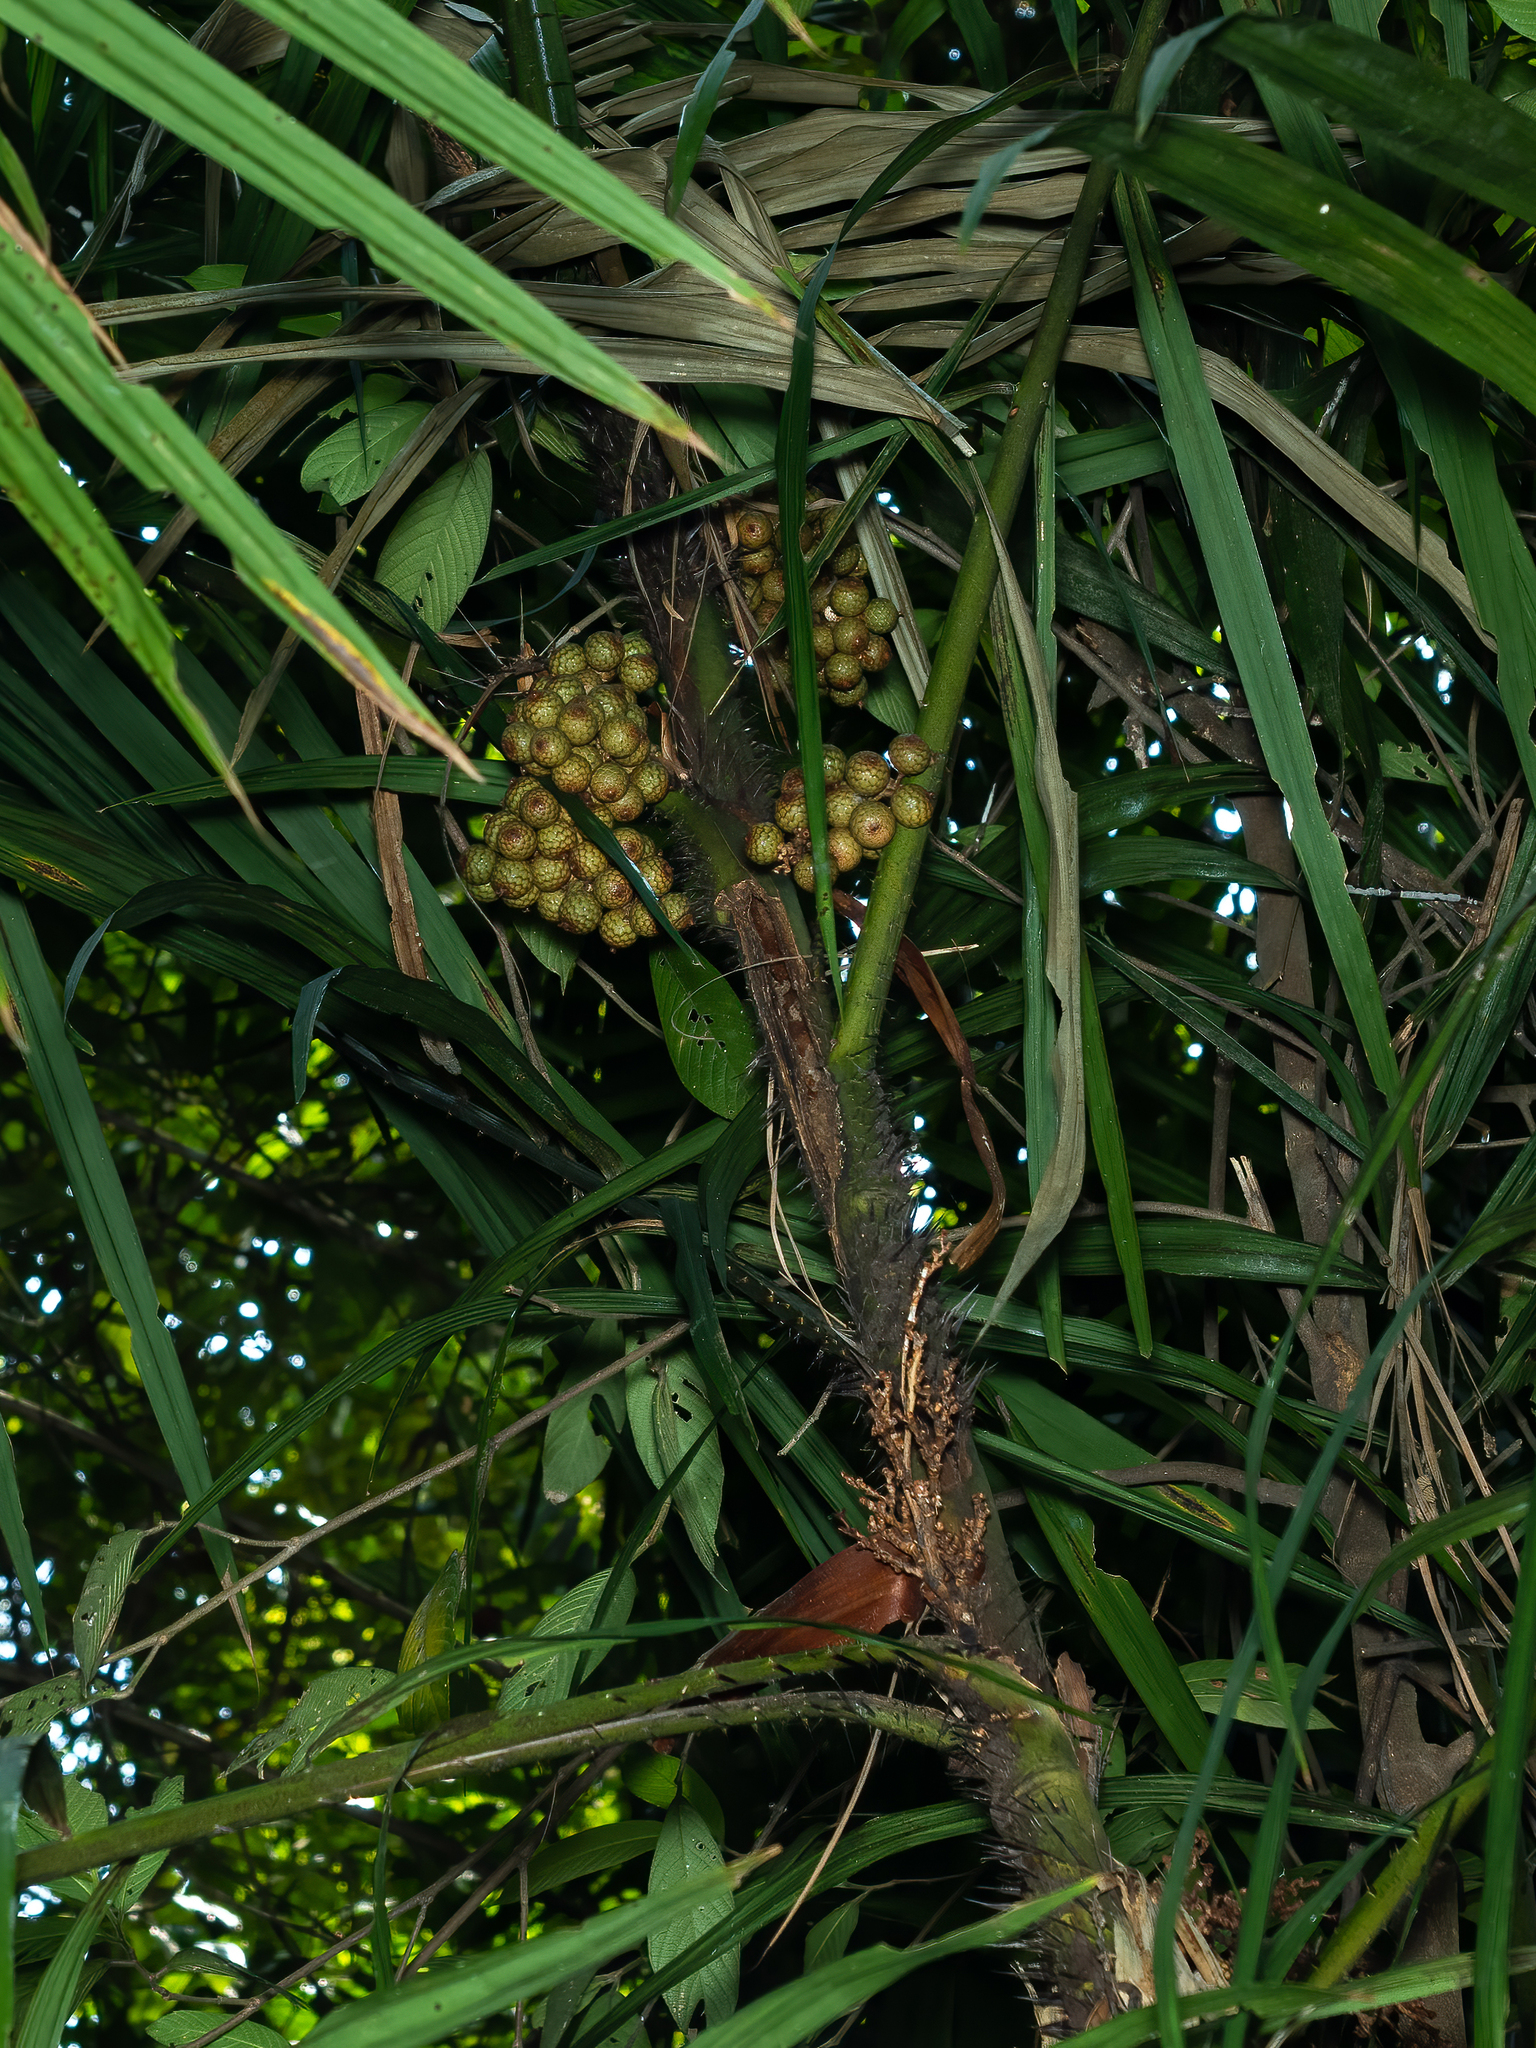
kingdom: Plantae
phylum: Tracheophyta
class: Liliopsida
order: Arecales
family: Arecaceae
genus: Calamus
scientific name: Calamus melanochaetes
